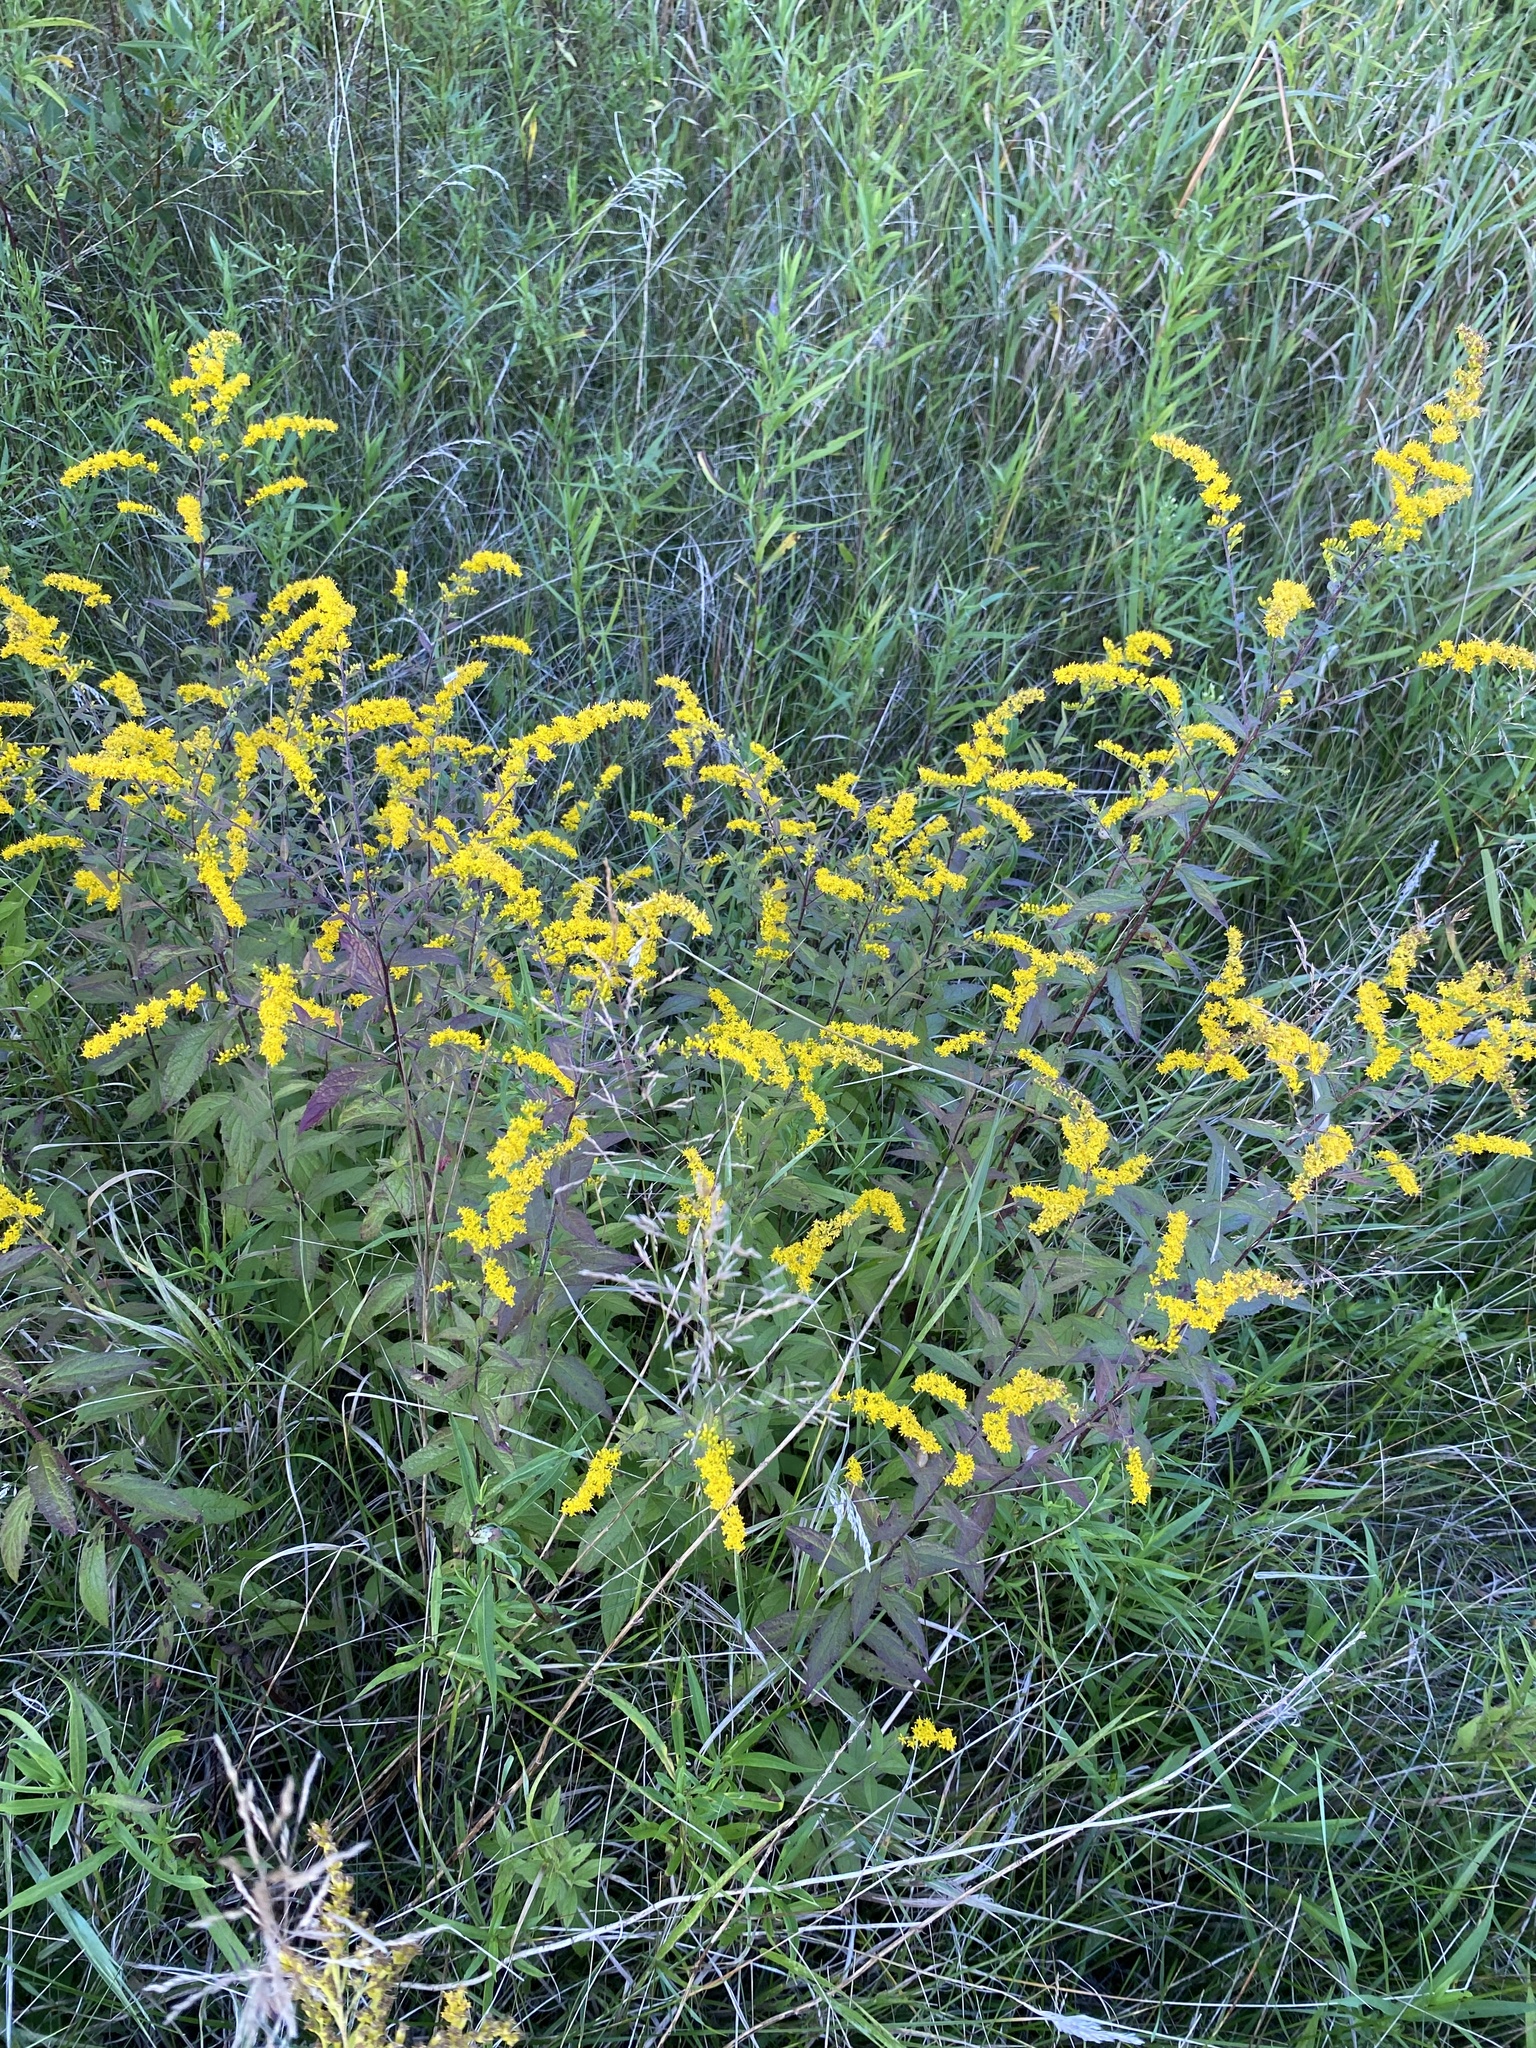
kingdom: Plantae
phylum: Tracheophyta
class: Magnoliopsida
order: Asterales
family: Asteraceae
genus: Solidago
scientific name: Solidago rugosa
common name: Rough-stemmed goldenrod
